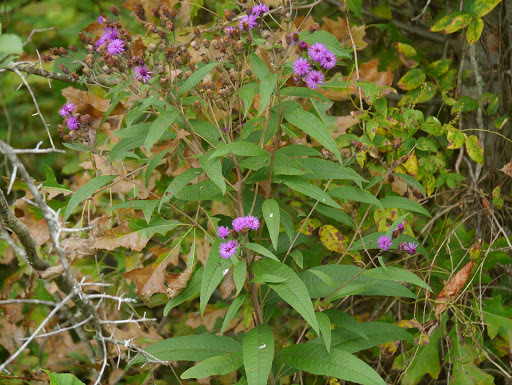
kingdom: Plantae
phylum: Tracheophyta
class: Magnoliopsida
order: Asterales
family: Asteraceae
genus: Vernonia
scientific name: Vernonia noveboracensis
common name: New york ironweed
